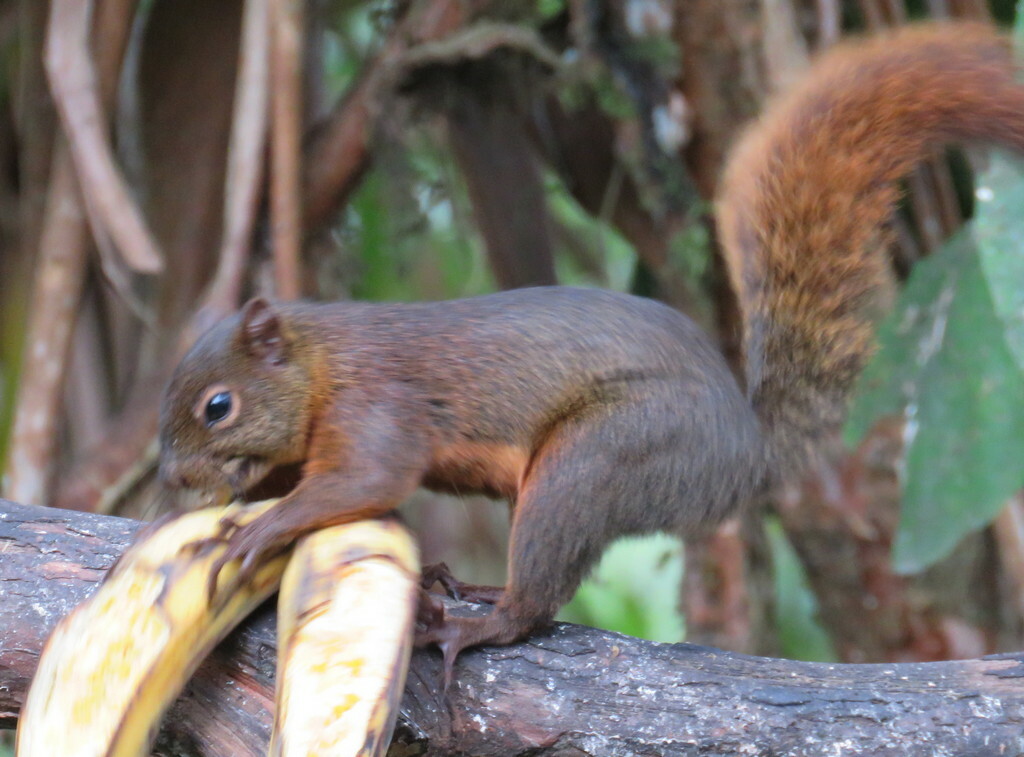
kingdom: Animalia
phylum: Chordata
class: Mammalia
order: Rodentia
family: Sciuridae
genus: Sciurus
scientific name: Sciurus granatensis
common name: Red-tailed squirrel
